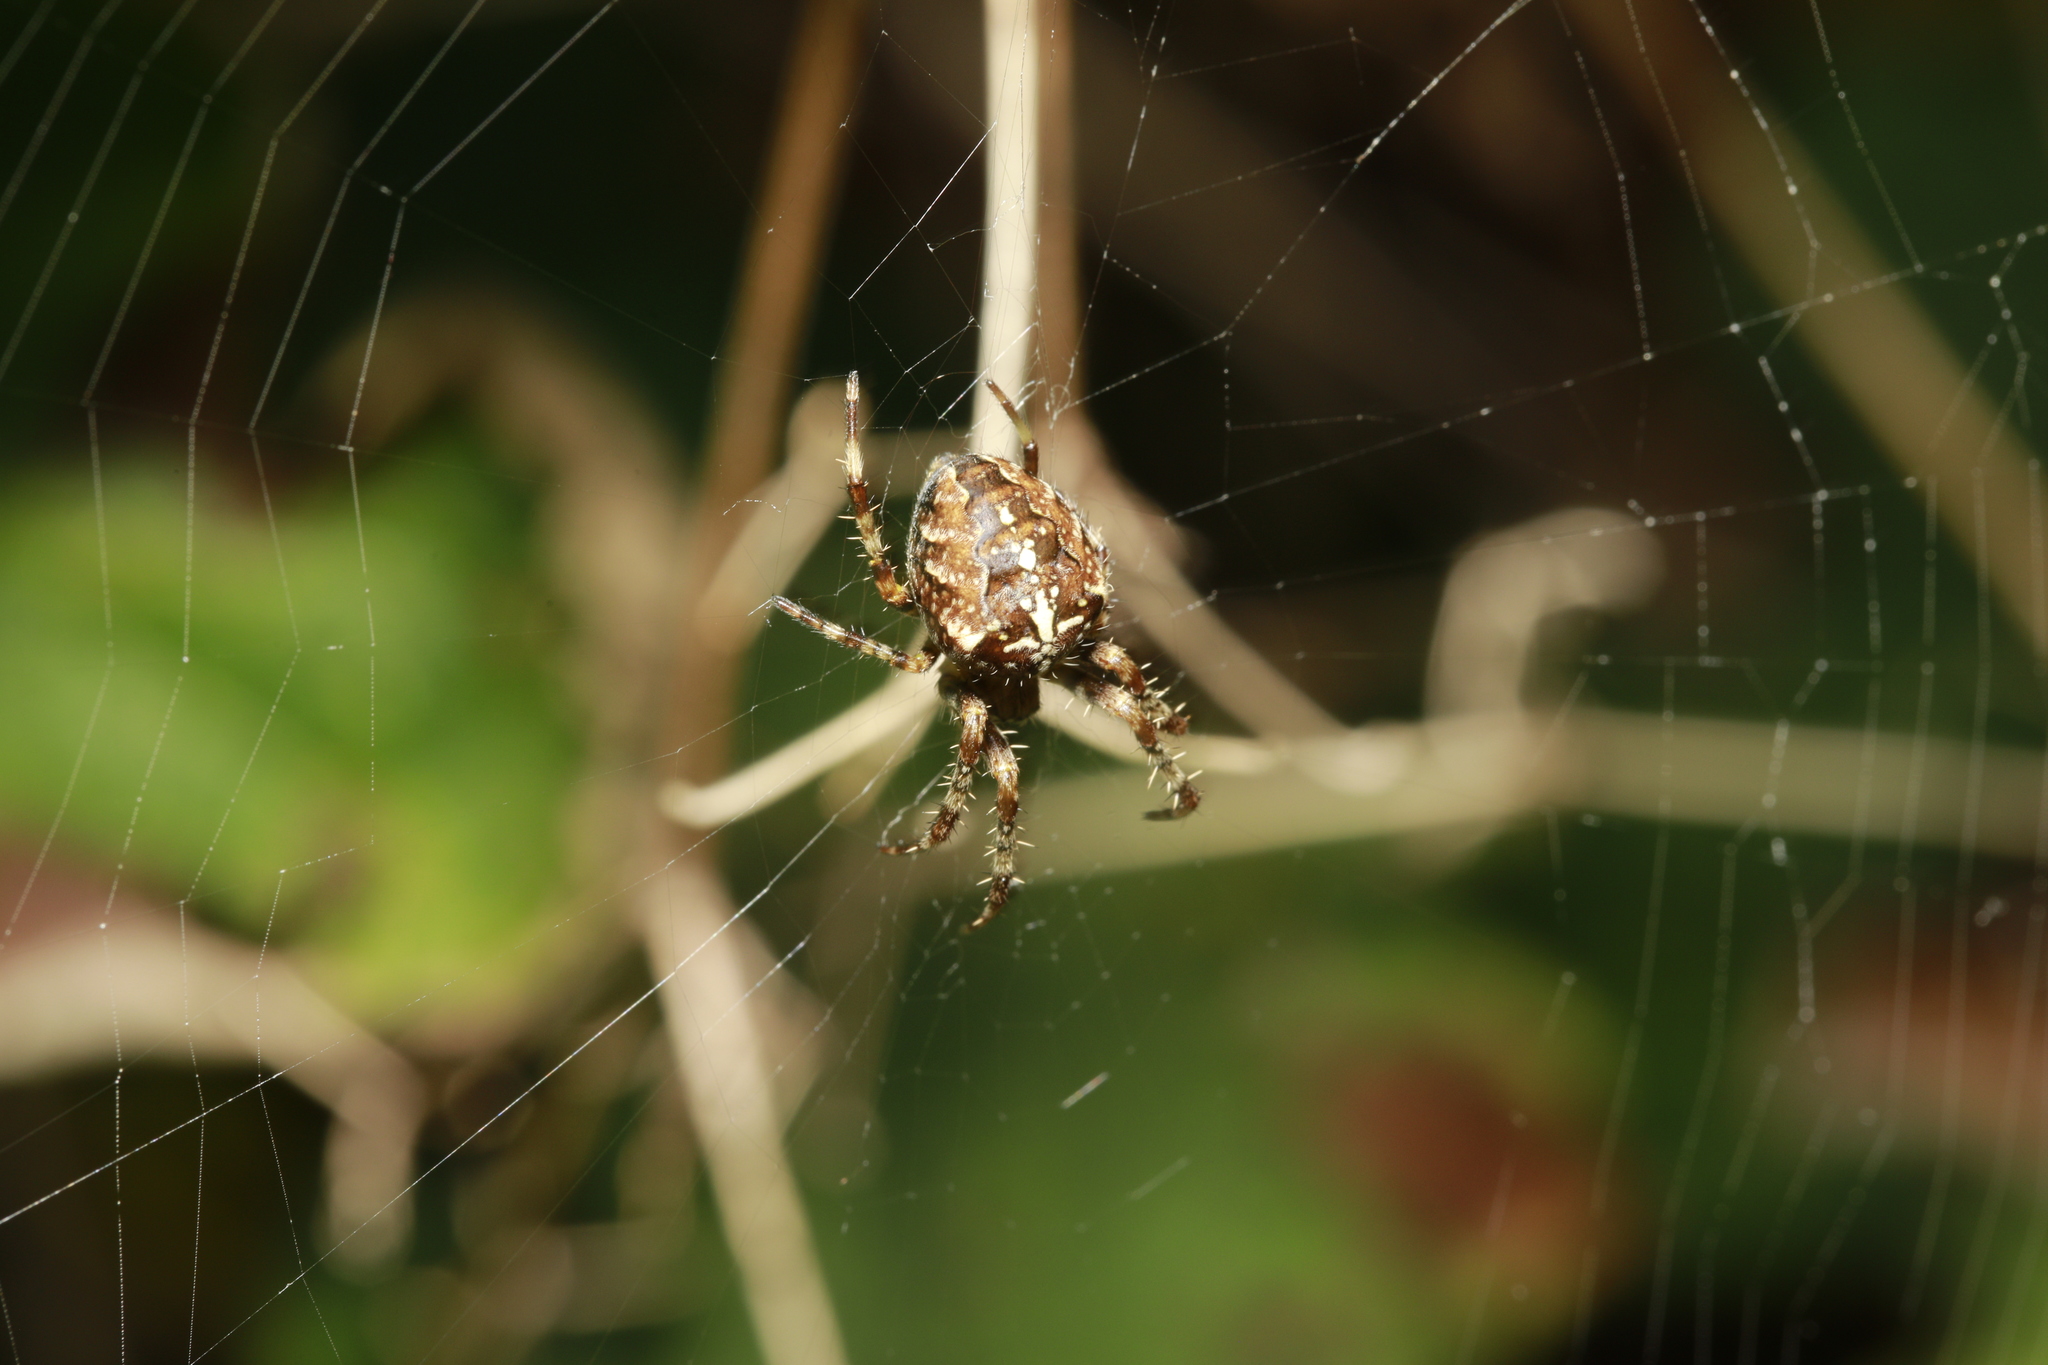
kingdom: Animalia
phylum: Arthropoda
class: Arachnida
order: Araneae
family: Araneidae
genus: Araneus
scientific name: Araneus diadematus
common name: Cross orbweaver
